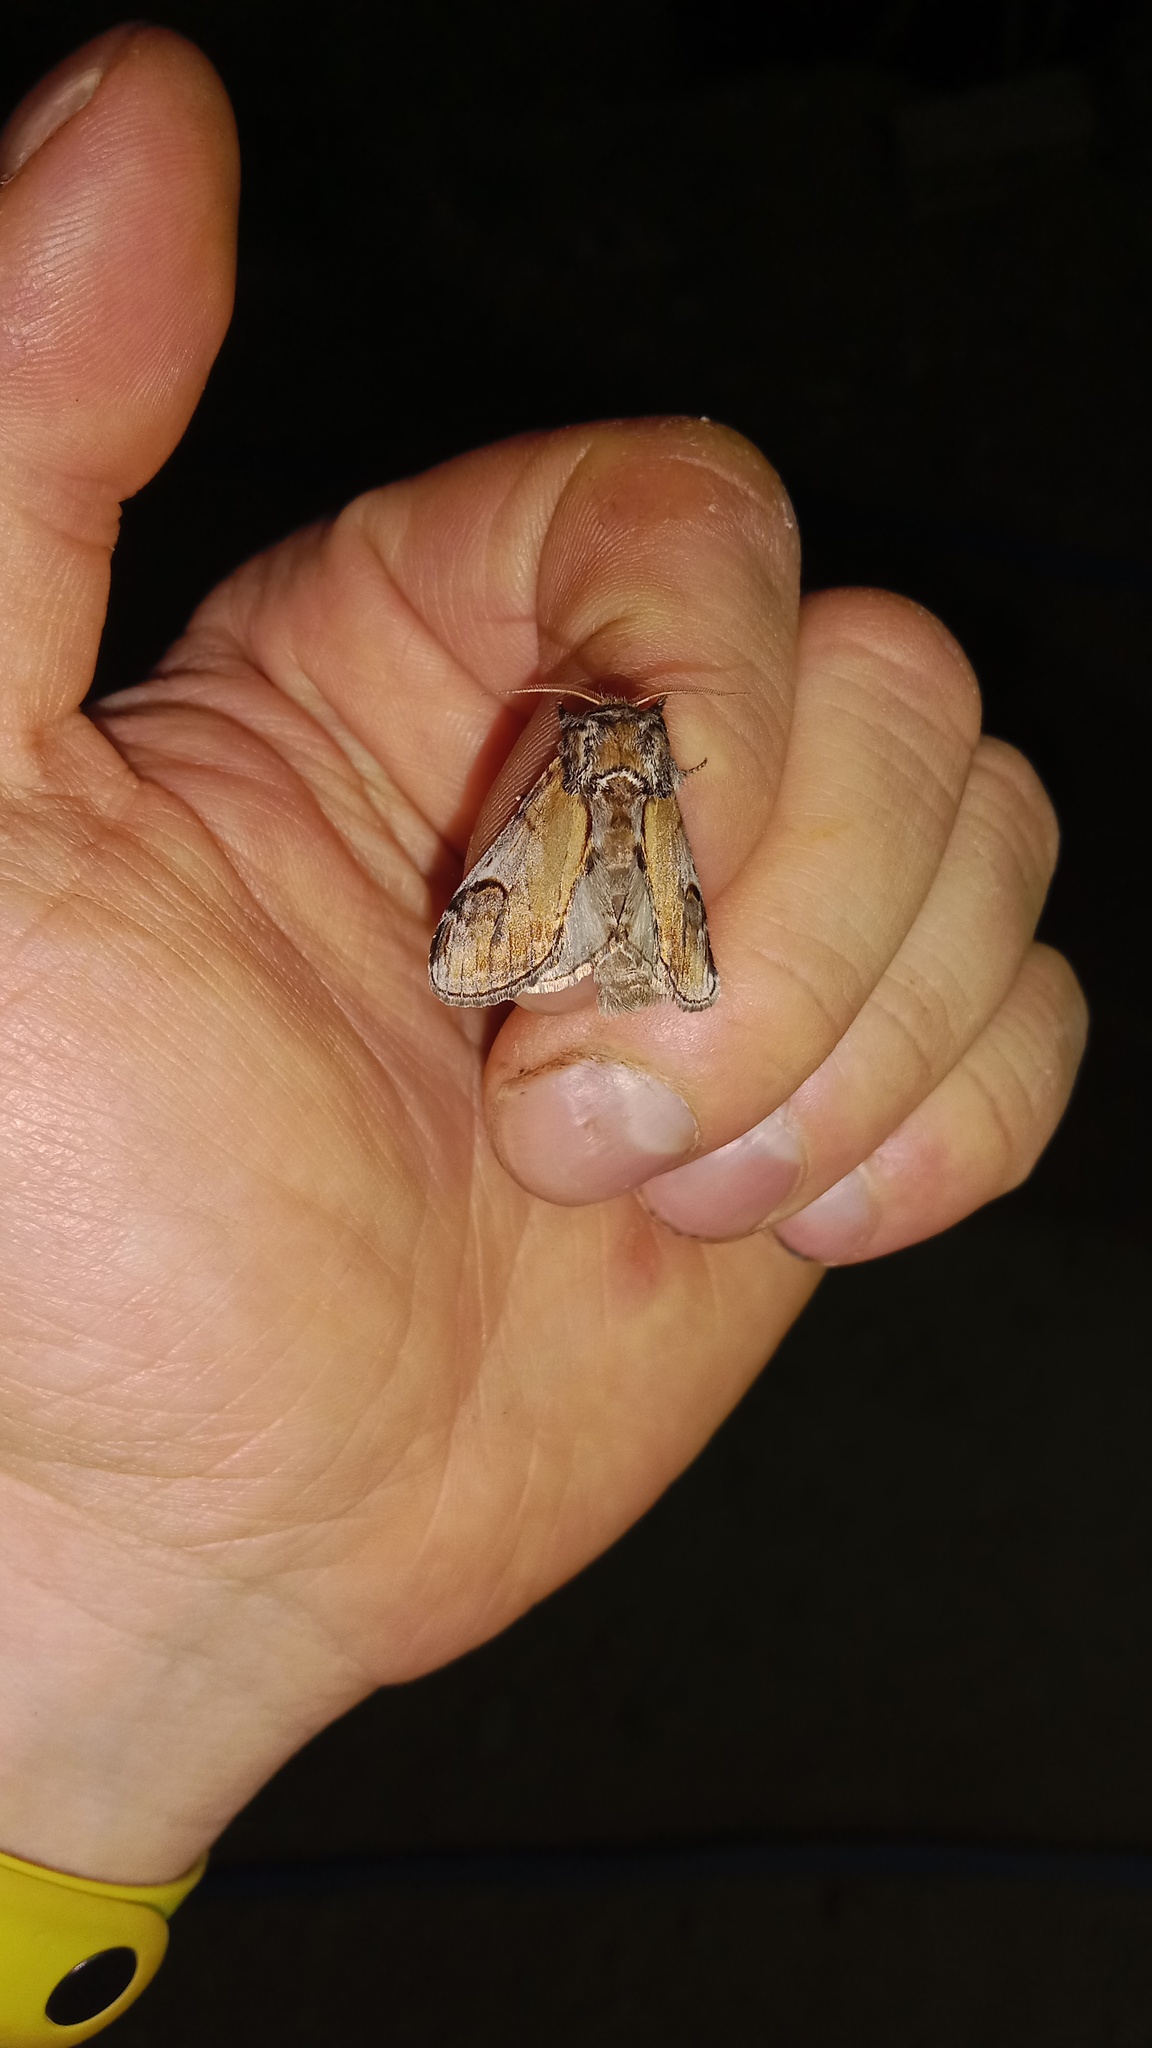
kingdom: Animalia
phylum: Arthropoda
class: Insecta
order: Lepidoptera
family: Notodontidae
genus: Notodonta
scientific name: Notodonta ziczac
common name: Pebble prominent
